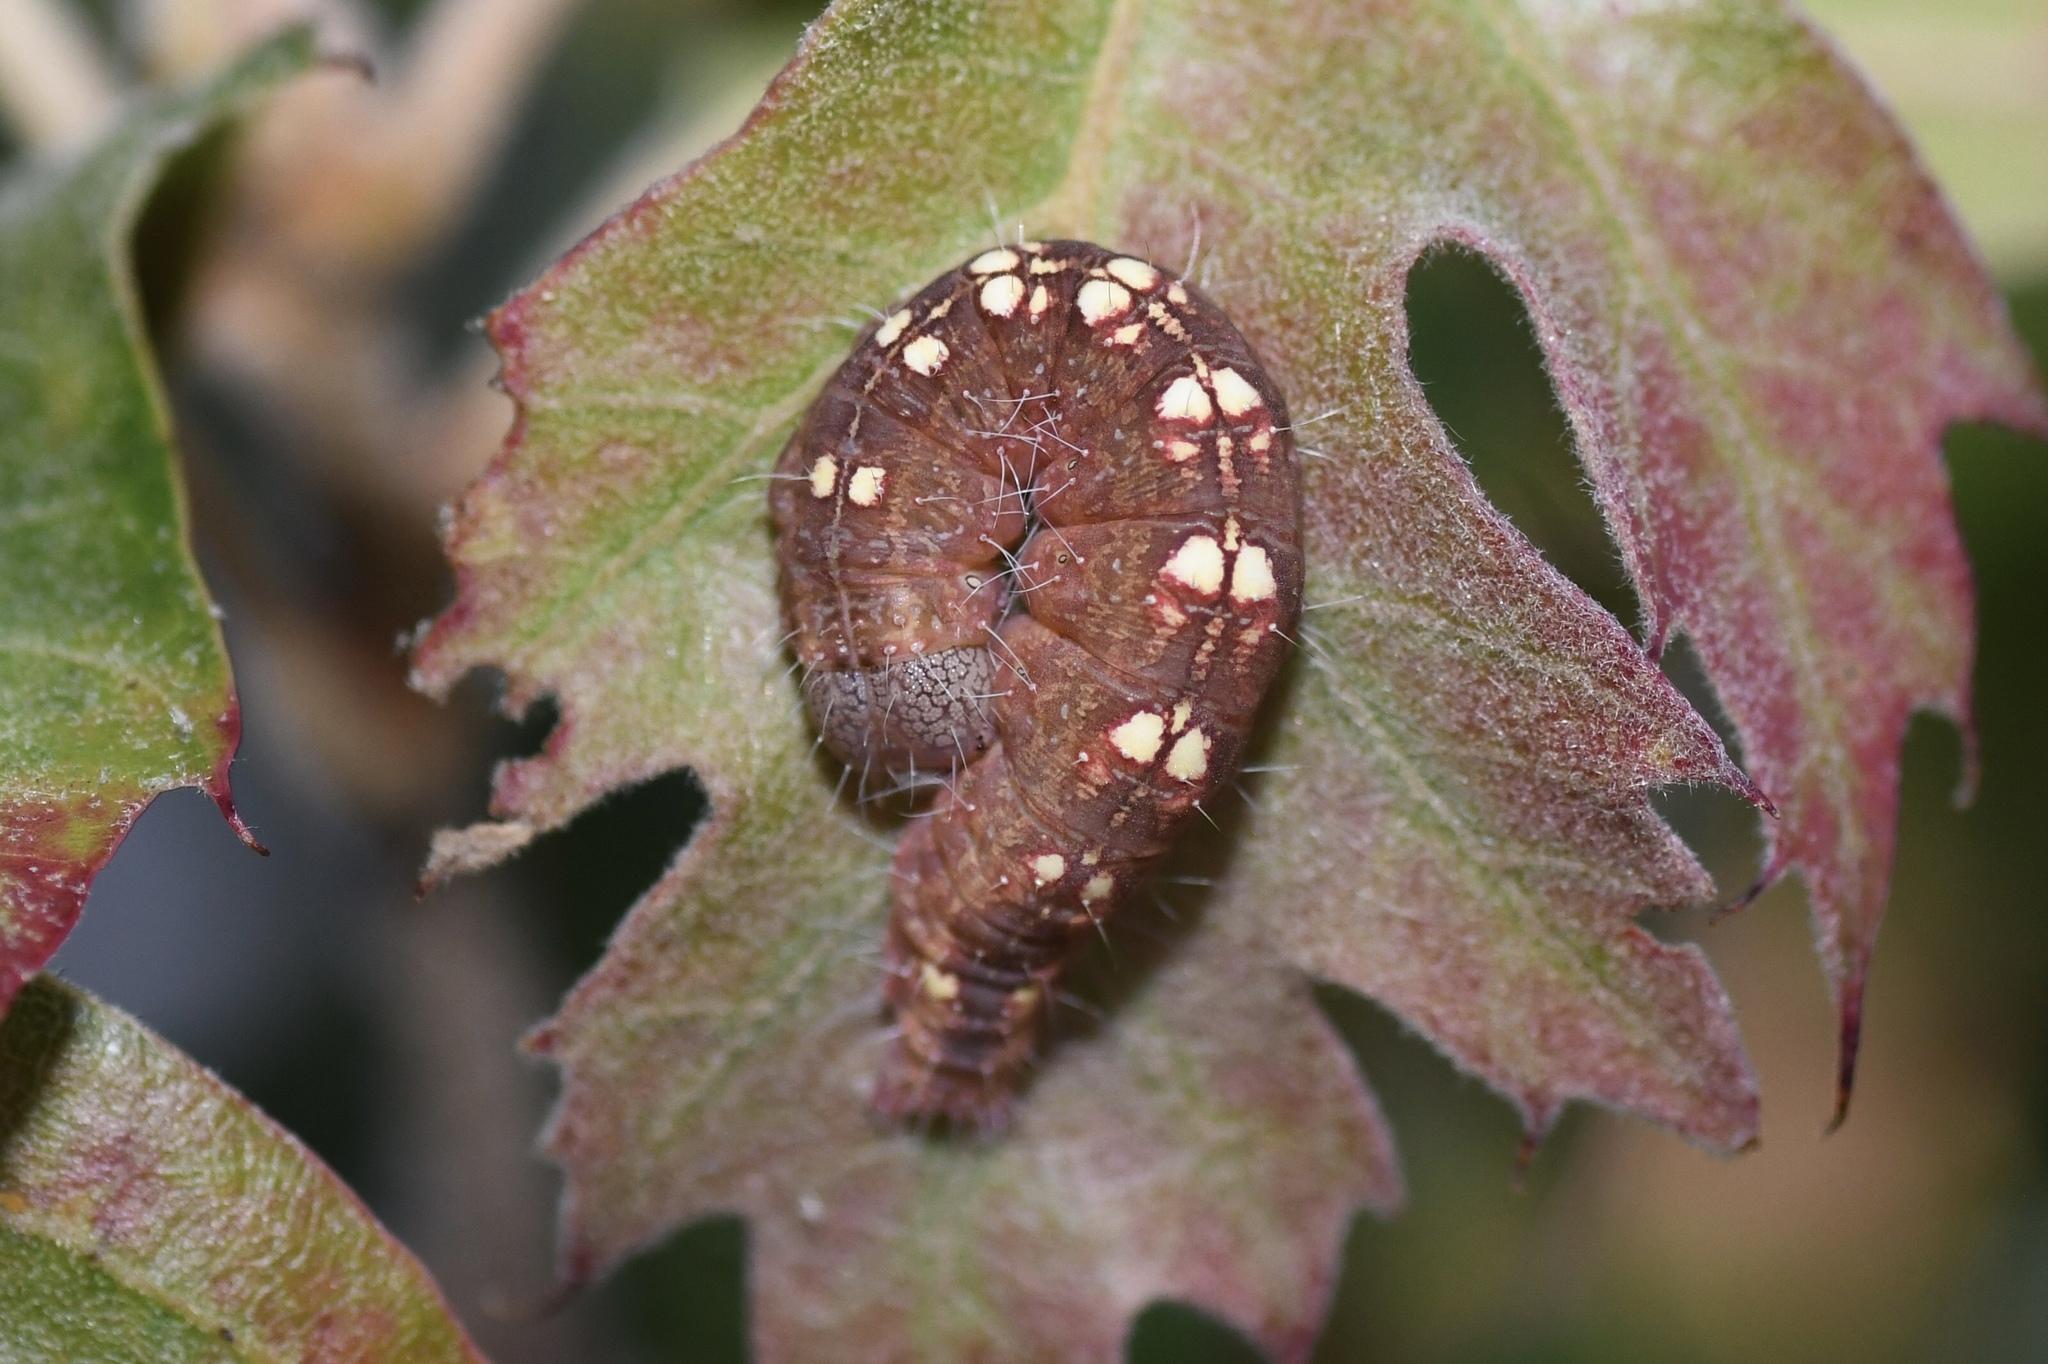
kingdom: Animalia
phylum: Arthropoda
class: Insecta
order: Lepidoptera
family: Noctuidae
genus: Acronicta
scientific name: Acronicta increta
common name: Eclipsed oak dagger
